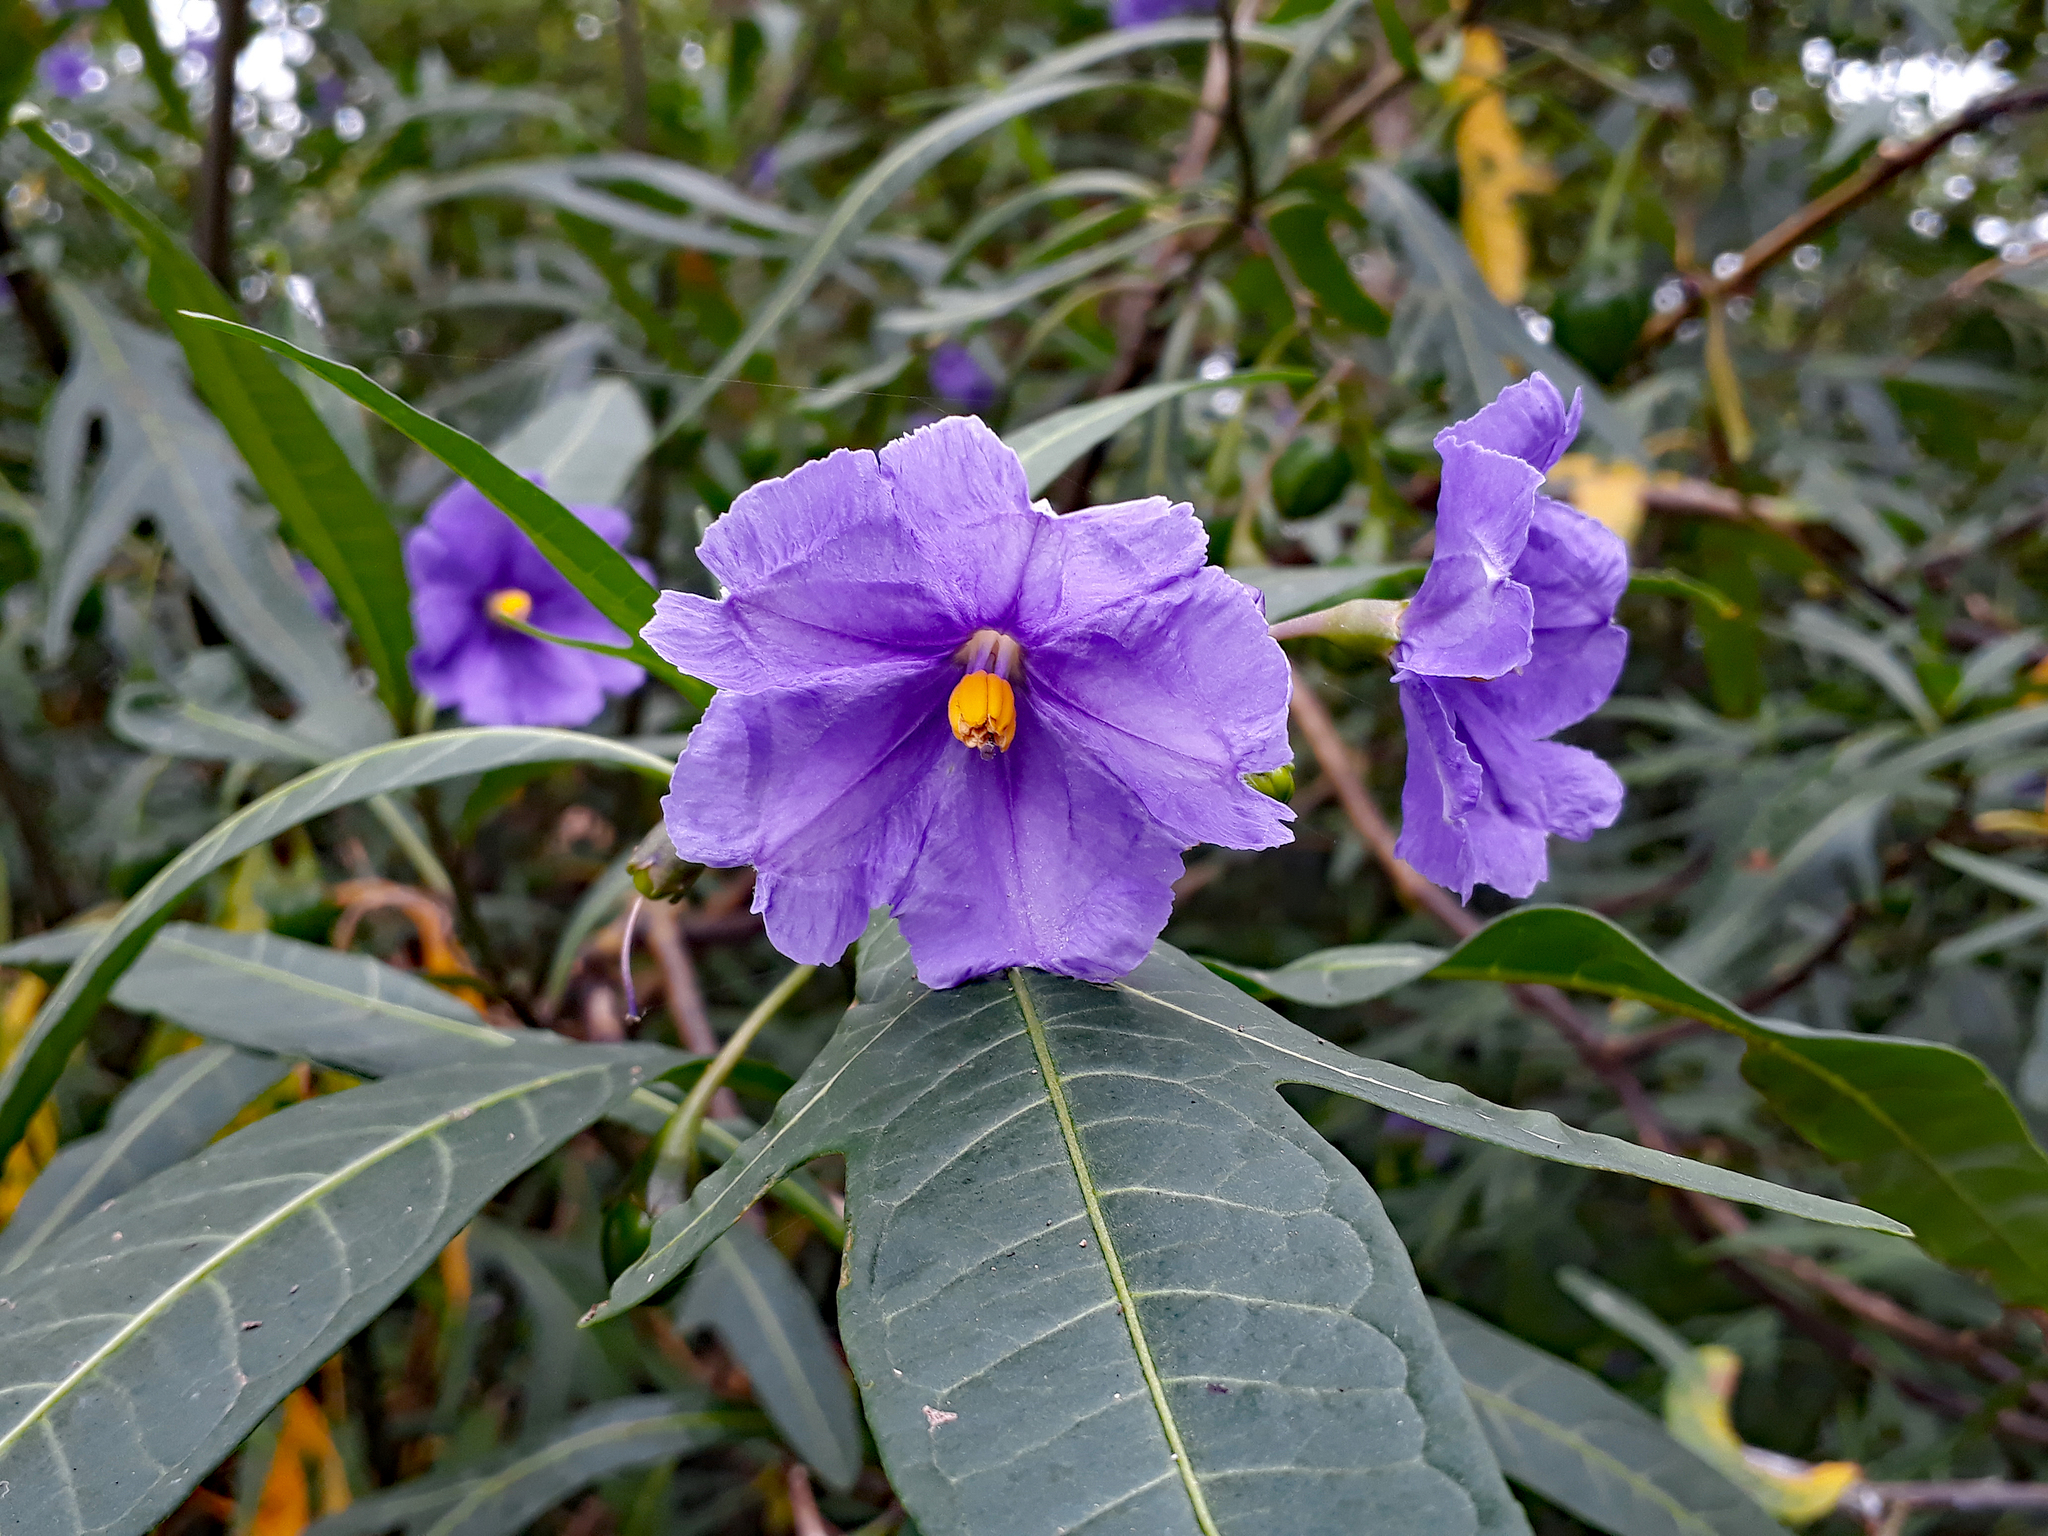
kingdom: Plantae
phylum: Tracheophyta
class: Magnoliopsida
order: Solanales
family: Solanaceae
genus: Solanum
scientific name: Solanum laciniatum
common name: Kangaroo-apple
